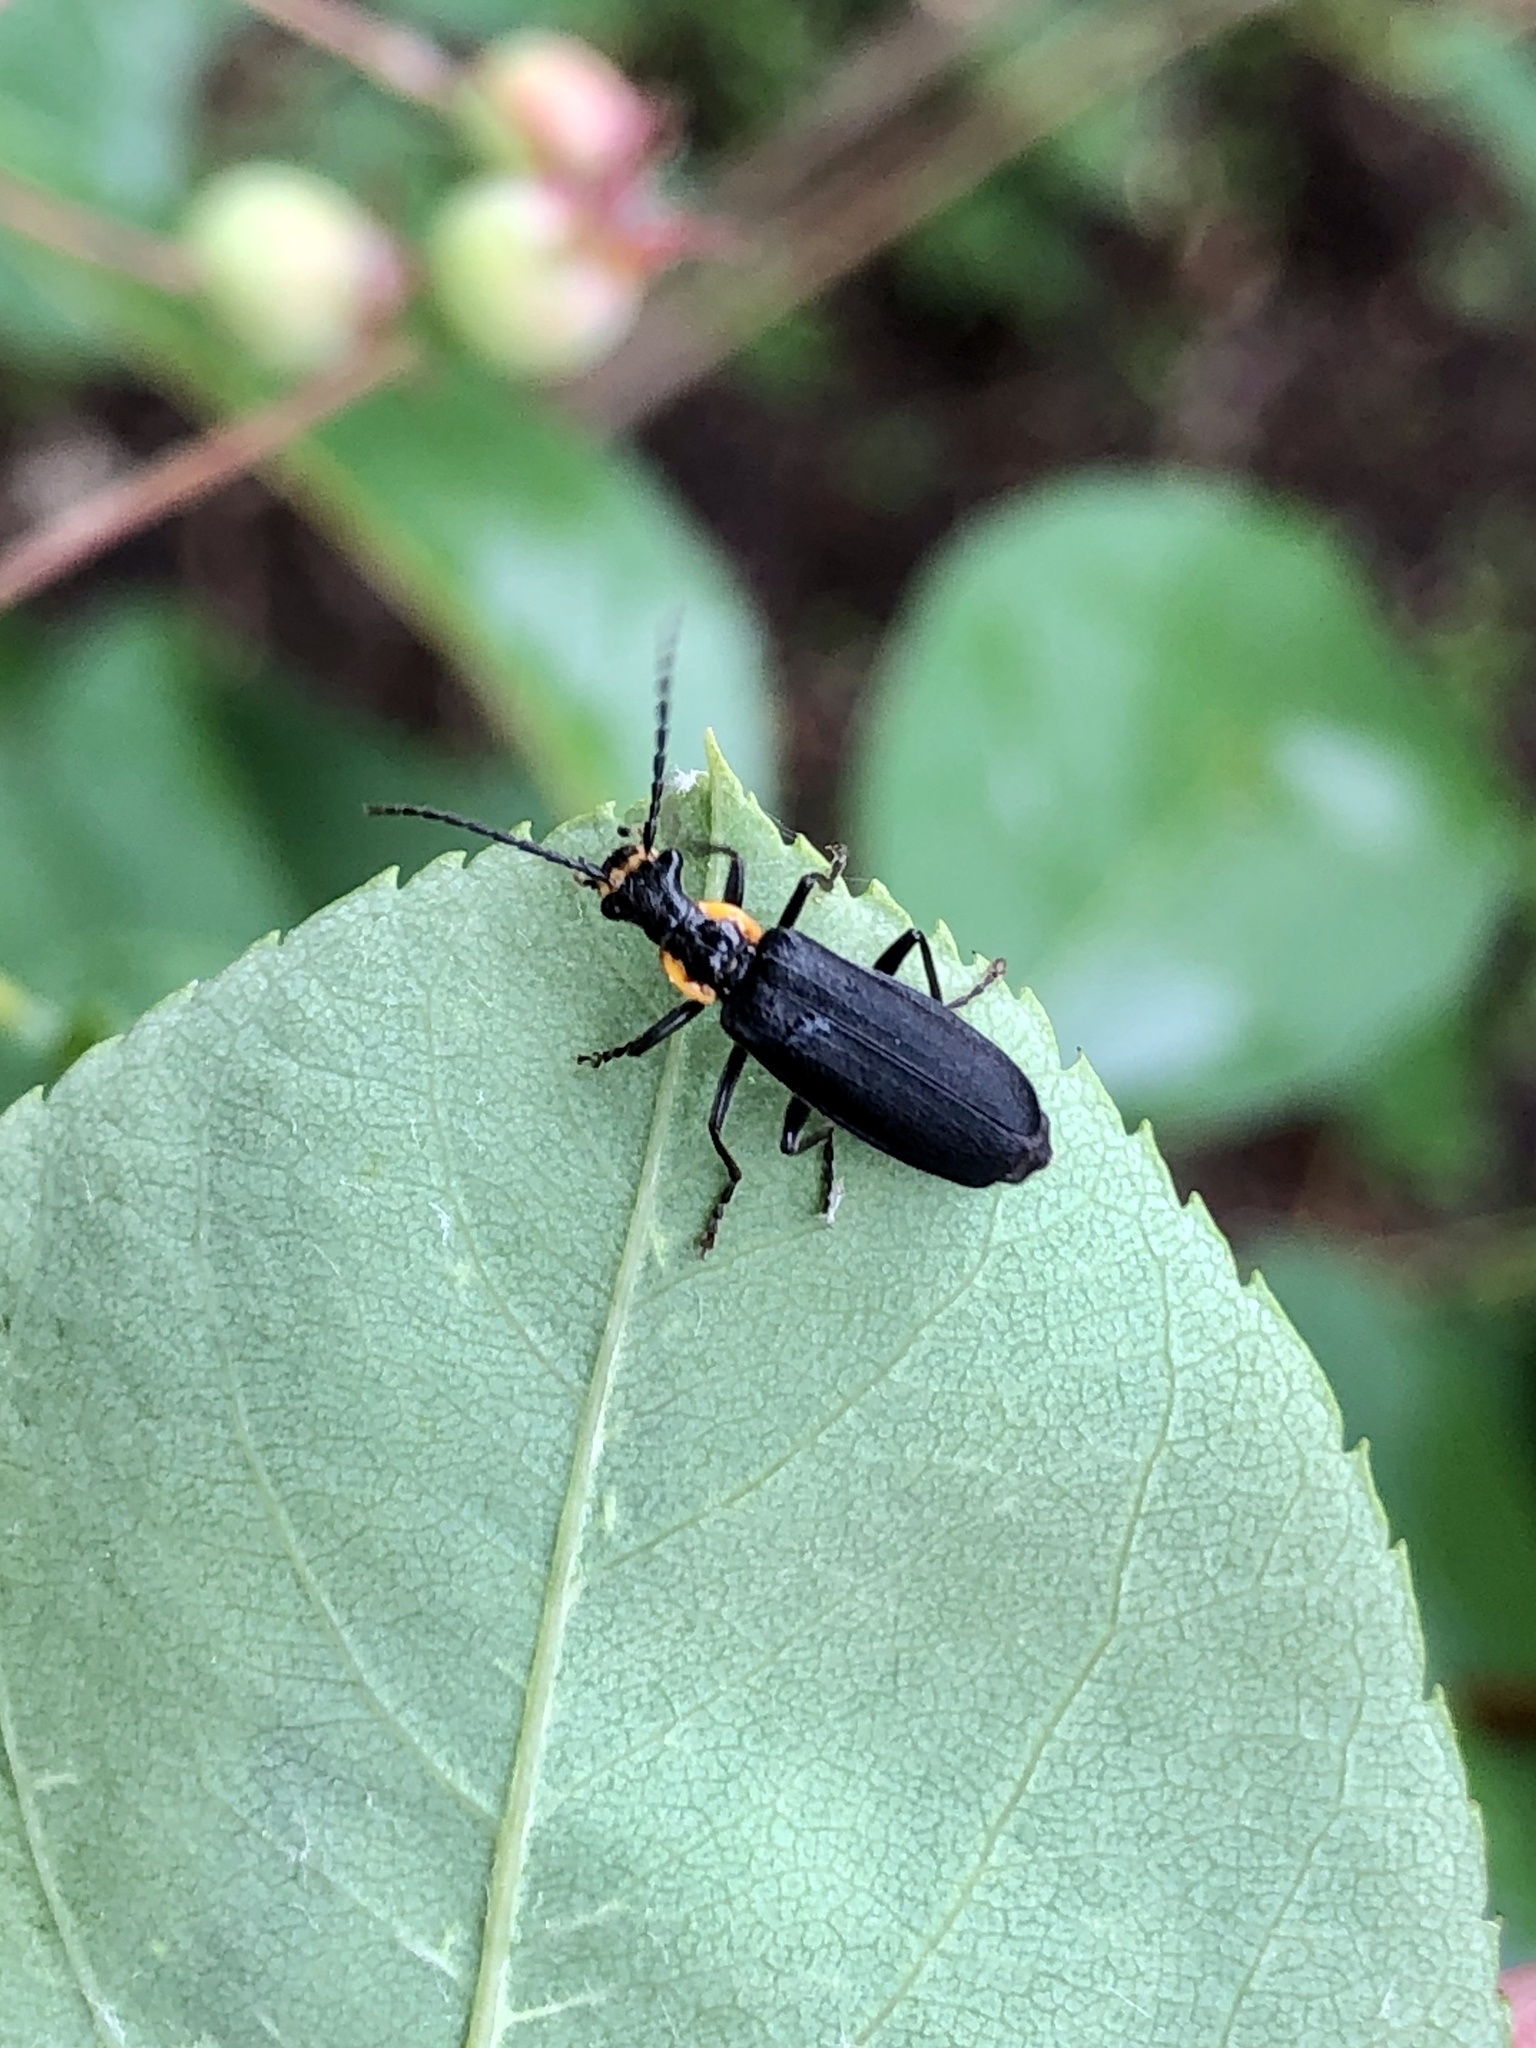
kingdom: Animalia
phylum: Arthropoda
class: Insecta
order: Coleoptera
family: Cantharidae
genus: Podabrus
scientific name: Podabrus rugosulus
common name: Wrinkled soldier beetle
